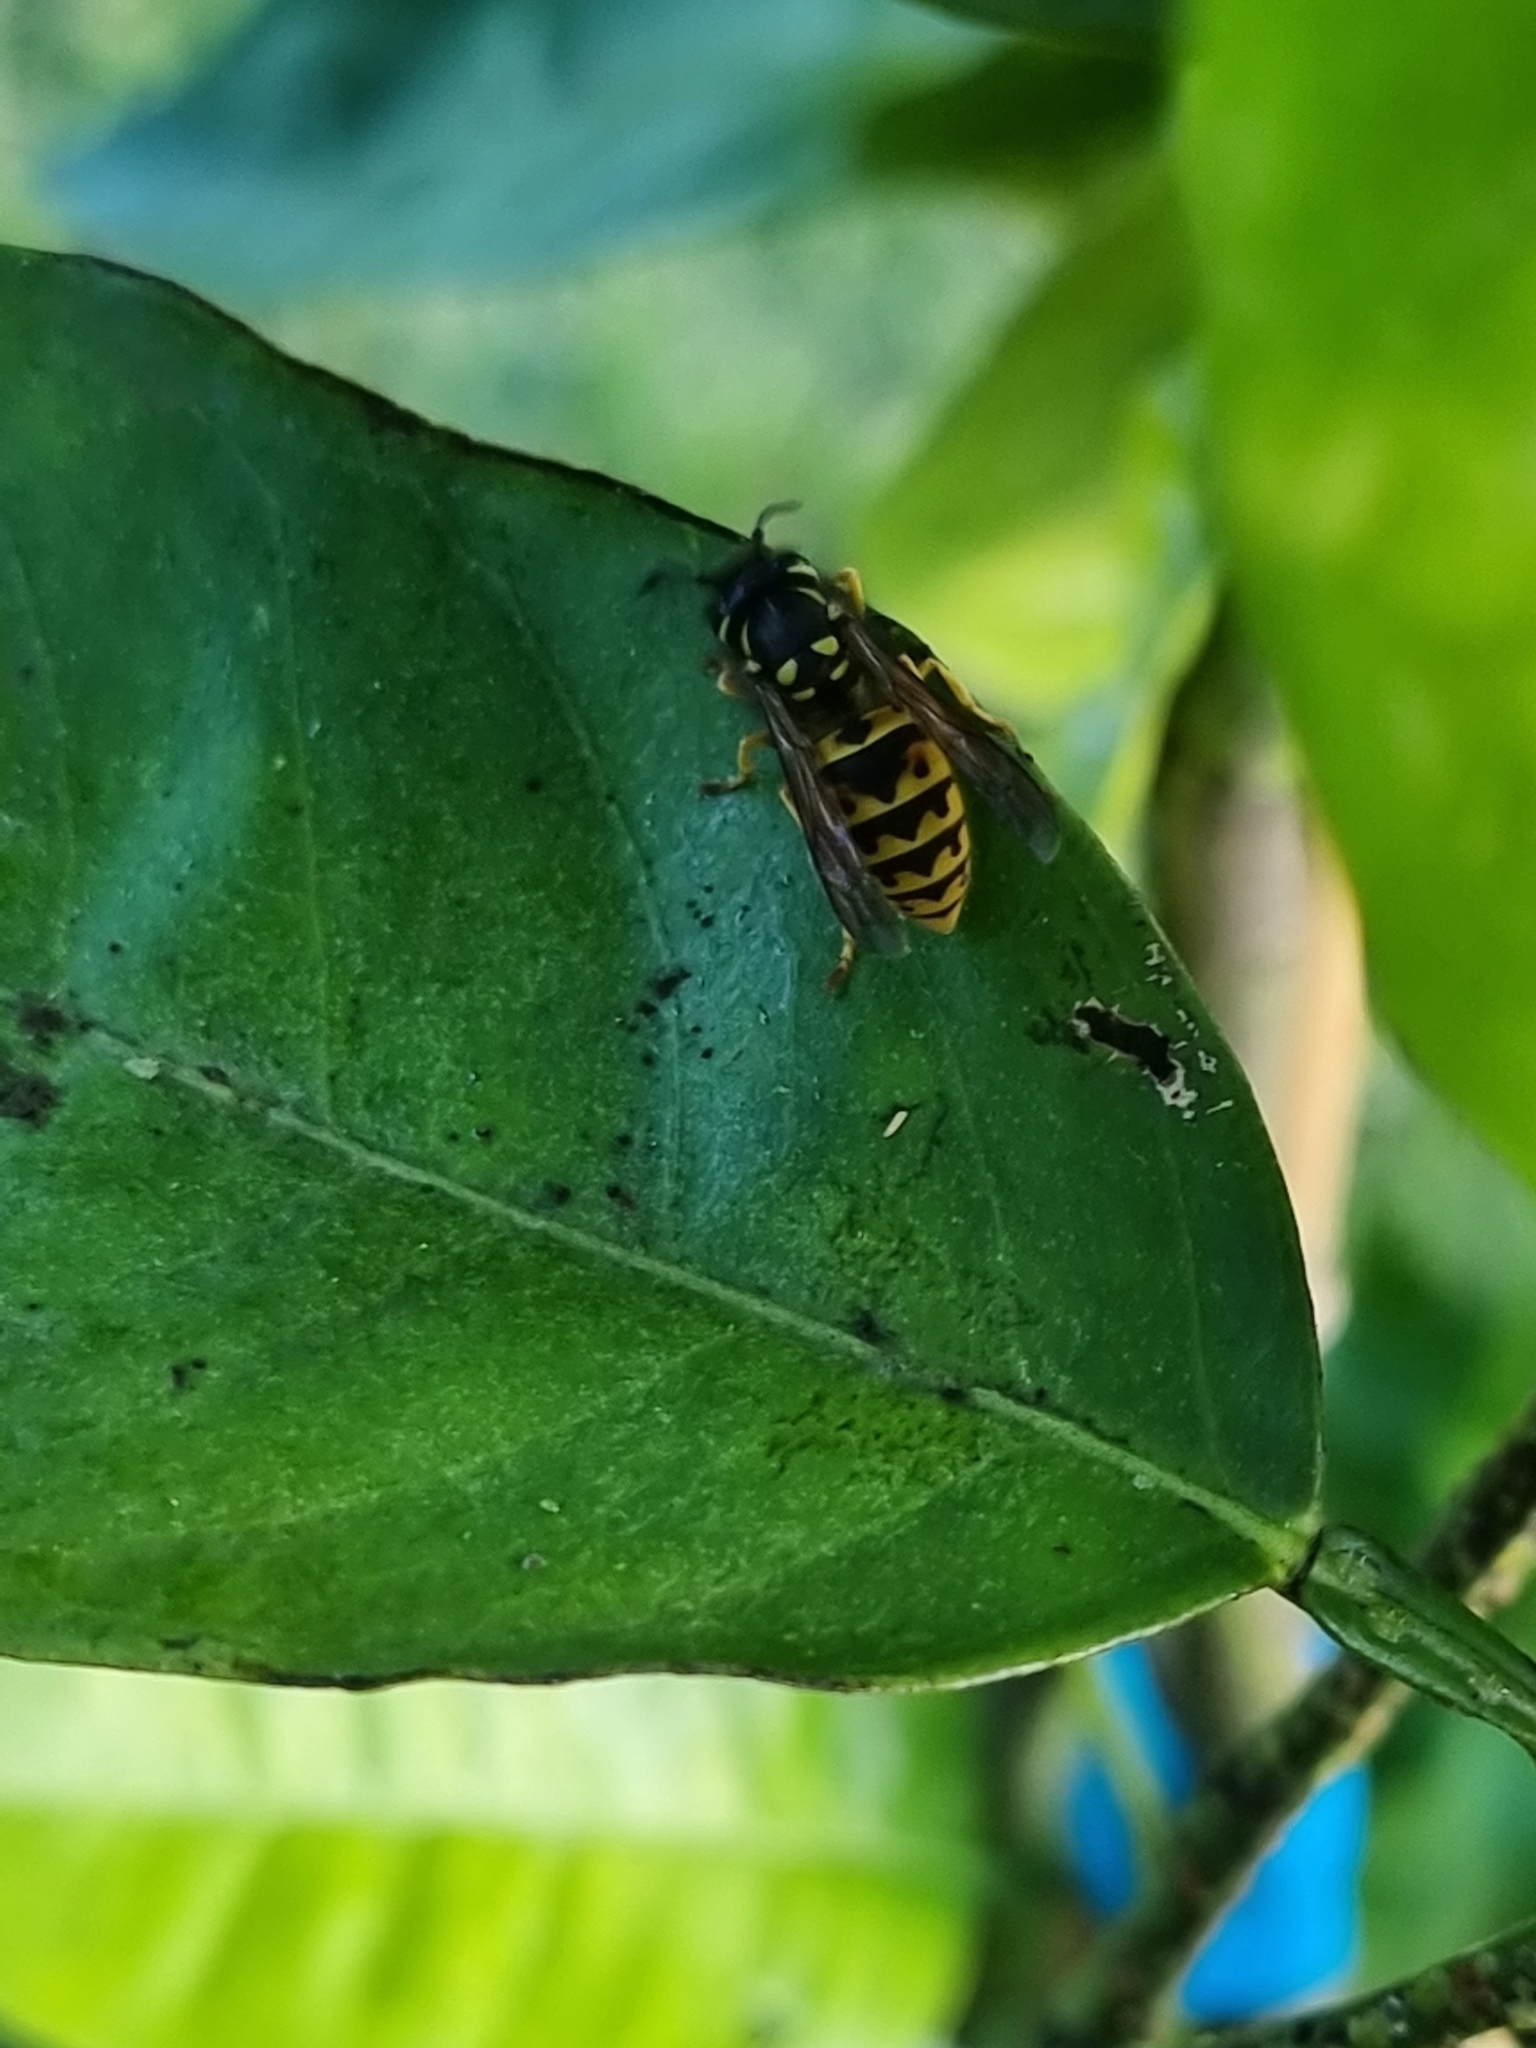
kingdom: Animalia
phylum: Arthropoda
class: Insecta
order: Hymenoptera
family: Vespidae
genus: Vespula
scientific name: Vespula germanica
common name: German wasp
